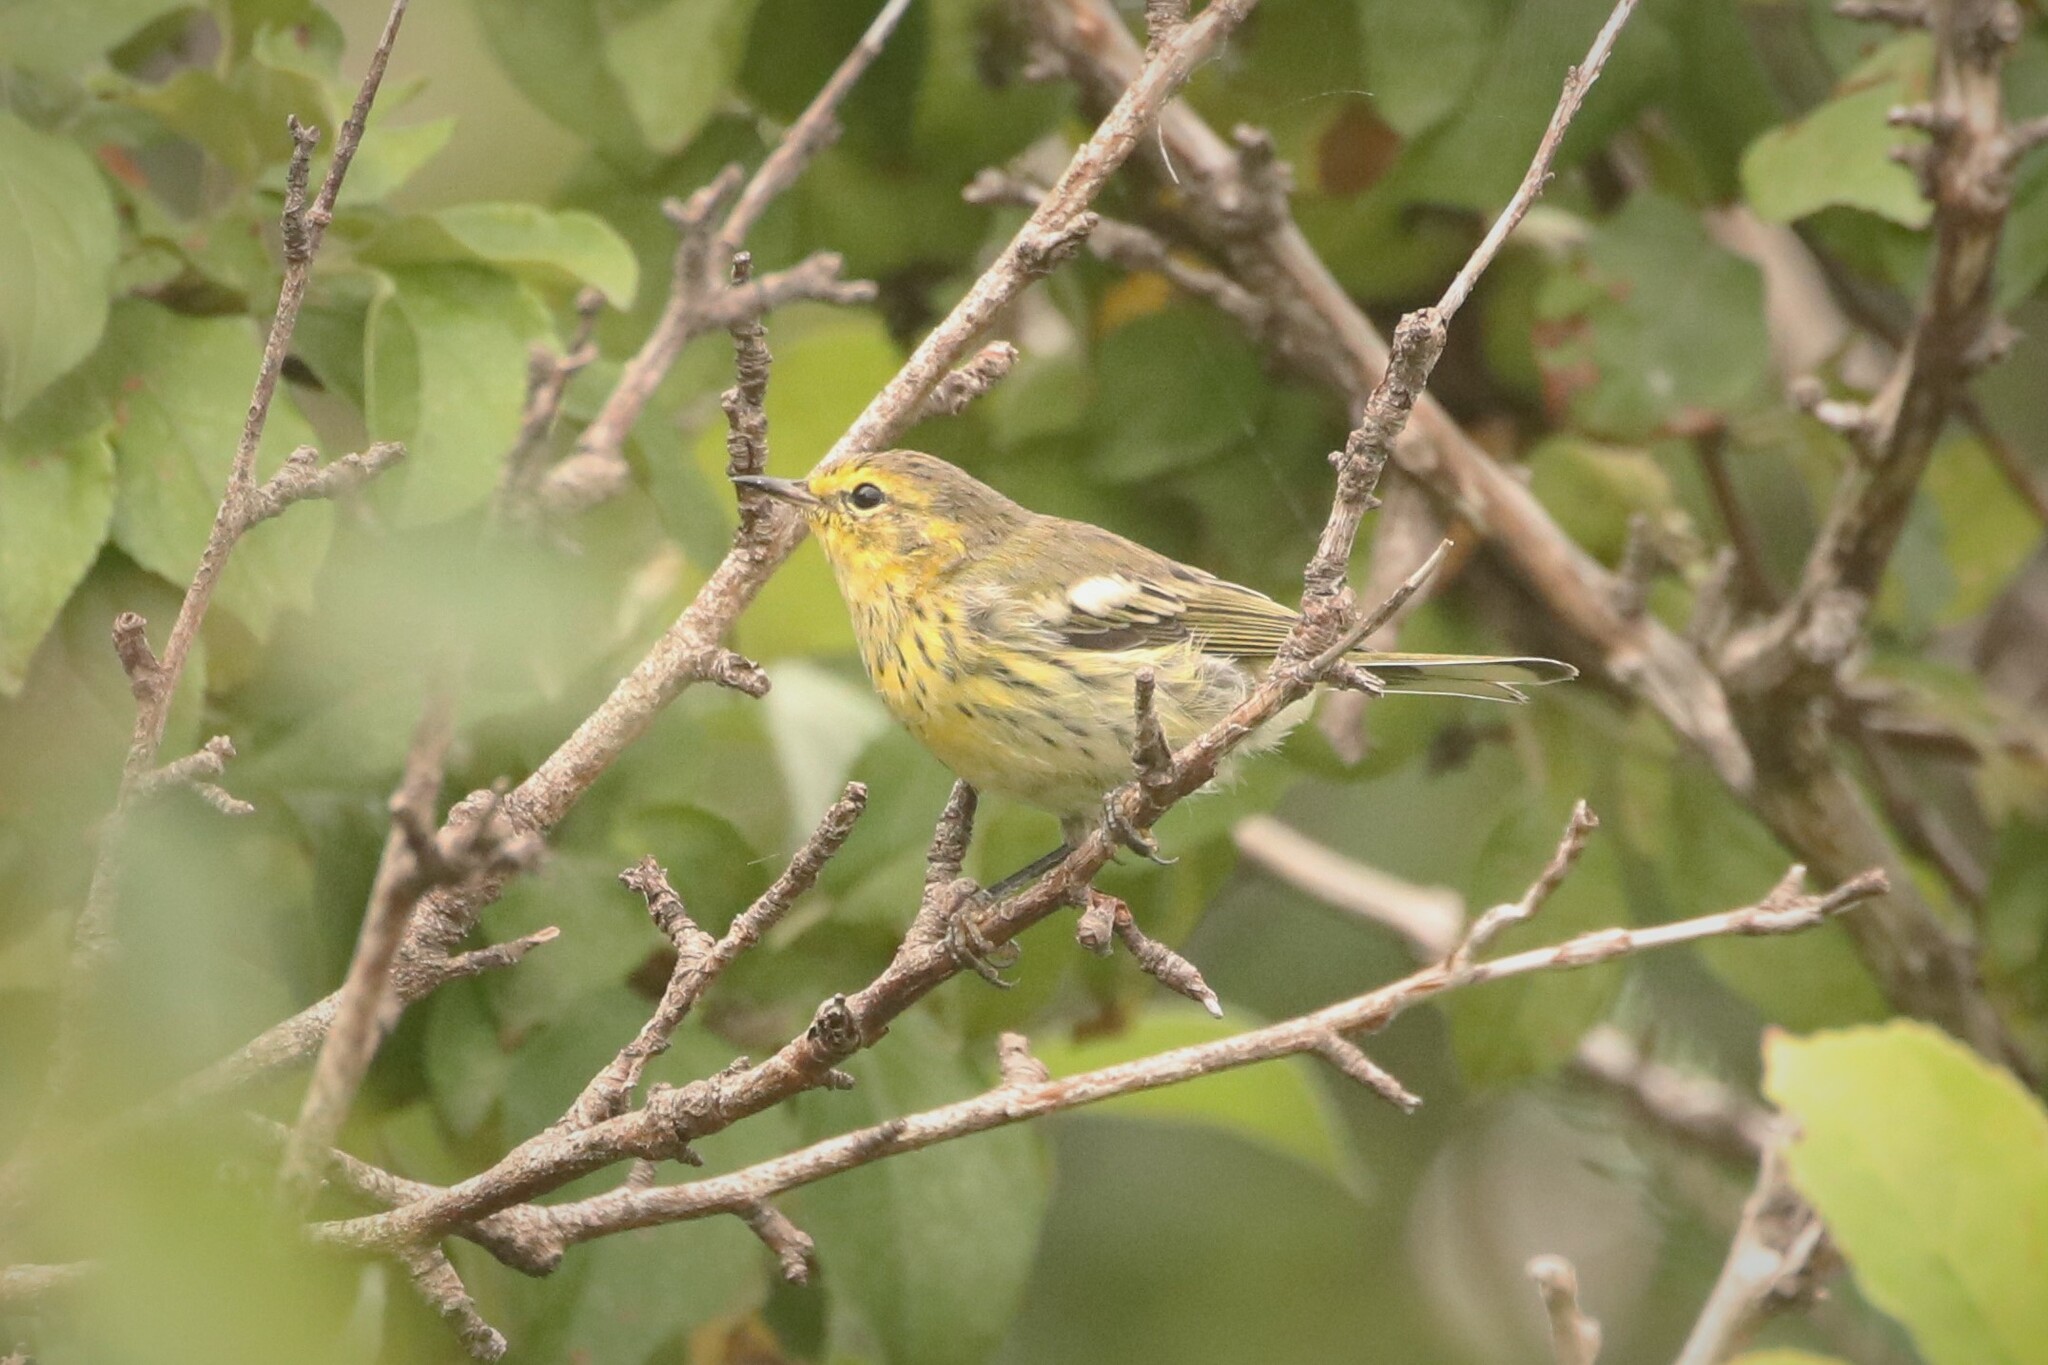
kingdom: Animalia
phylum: Chordata
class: Aves
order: Passeriformes
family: Parulidae
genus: Setophaga
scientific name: Setophaga tigrina
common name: Cape may warbler
